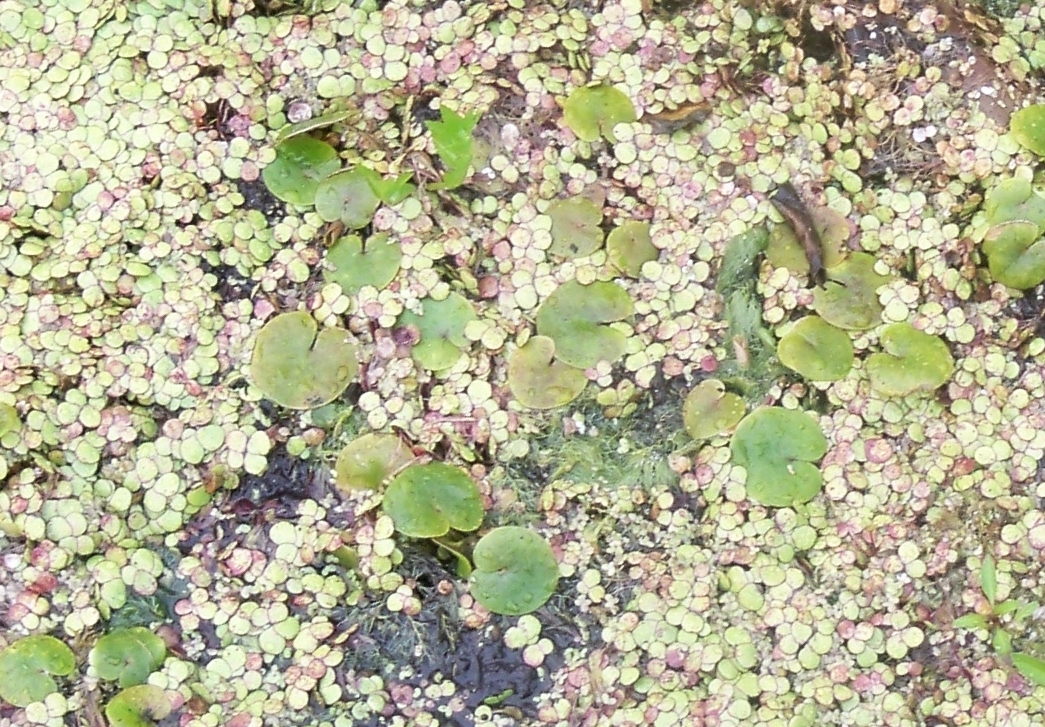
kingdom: Plantae
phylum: Tracheophyta
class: Liliopsida
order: Alismatales
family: Hydrocharitaceae
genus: Hydrocharis
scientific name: Hydrocharis morsus-ranae
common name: Frogbit
